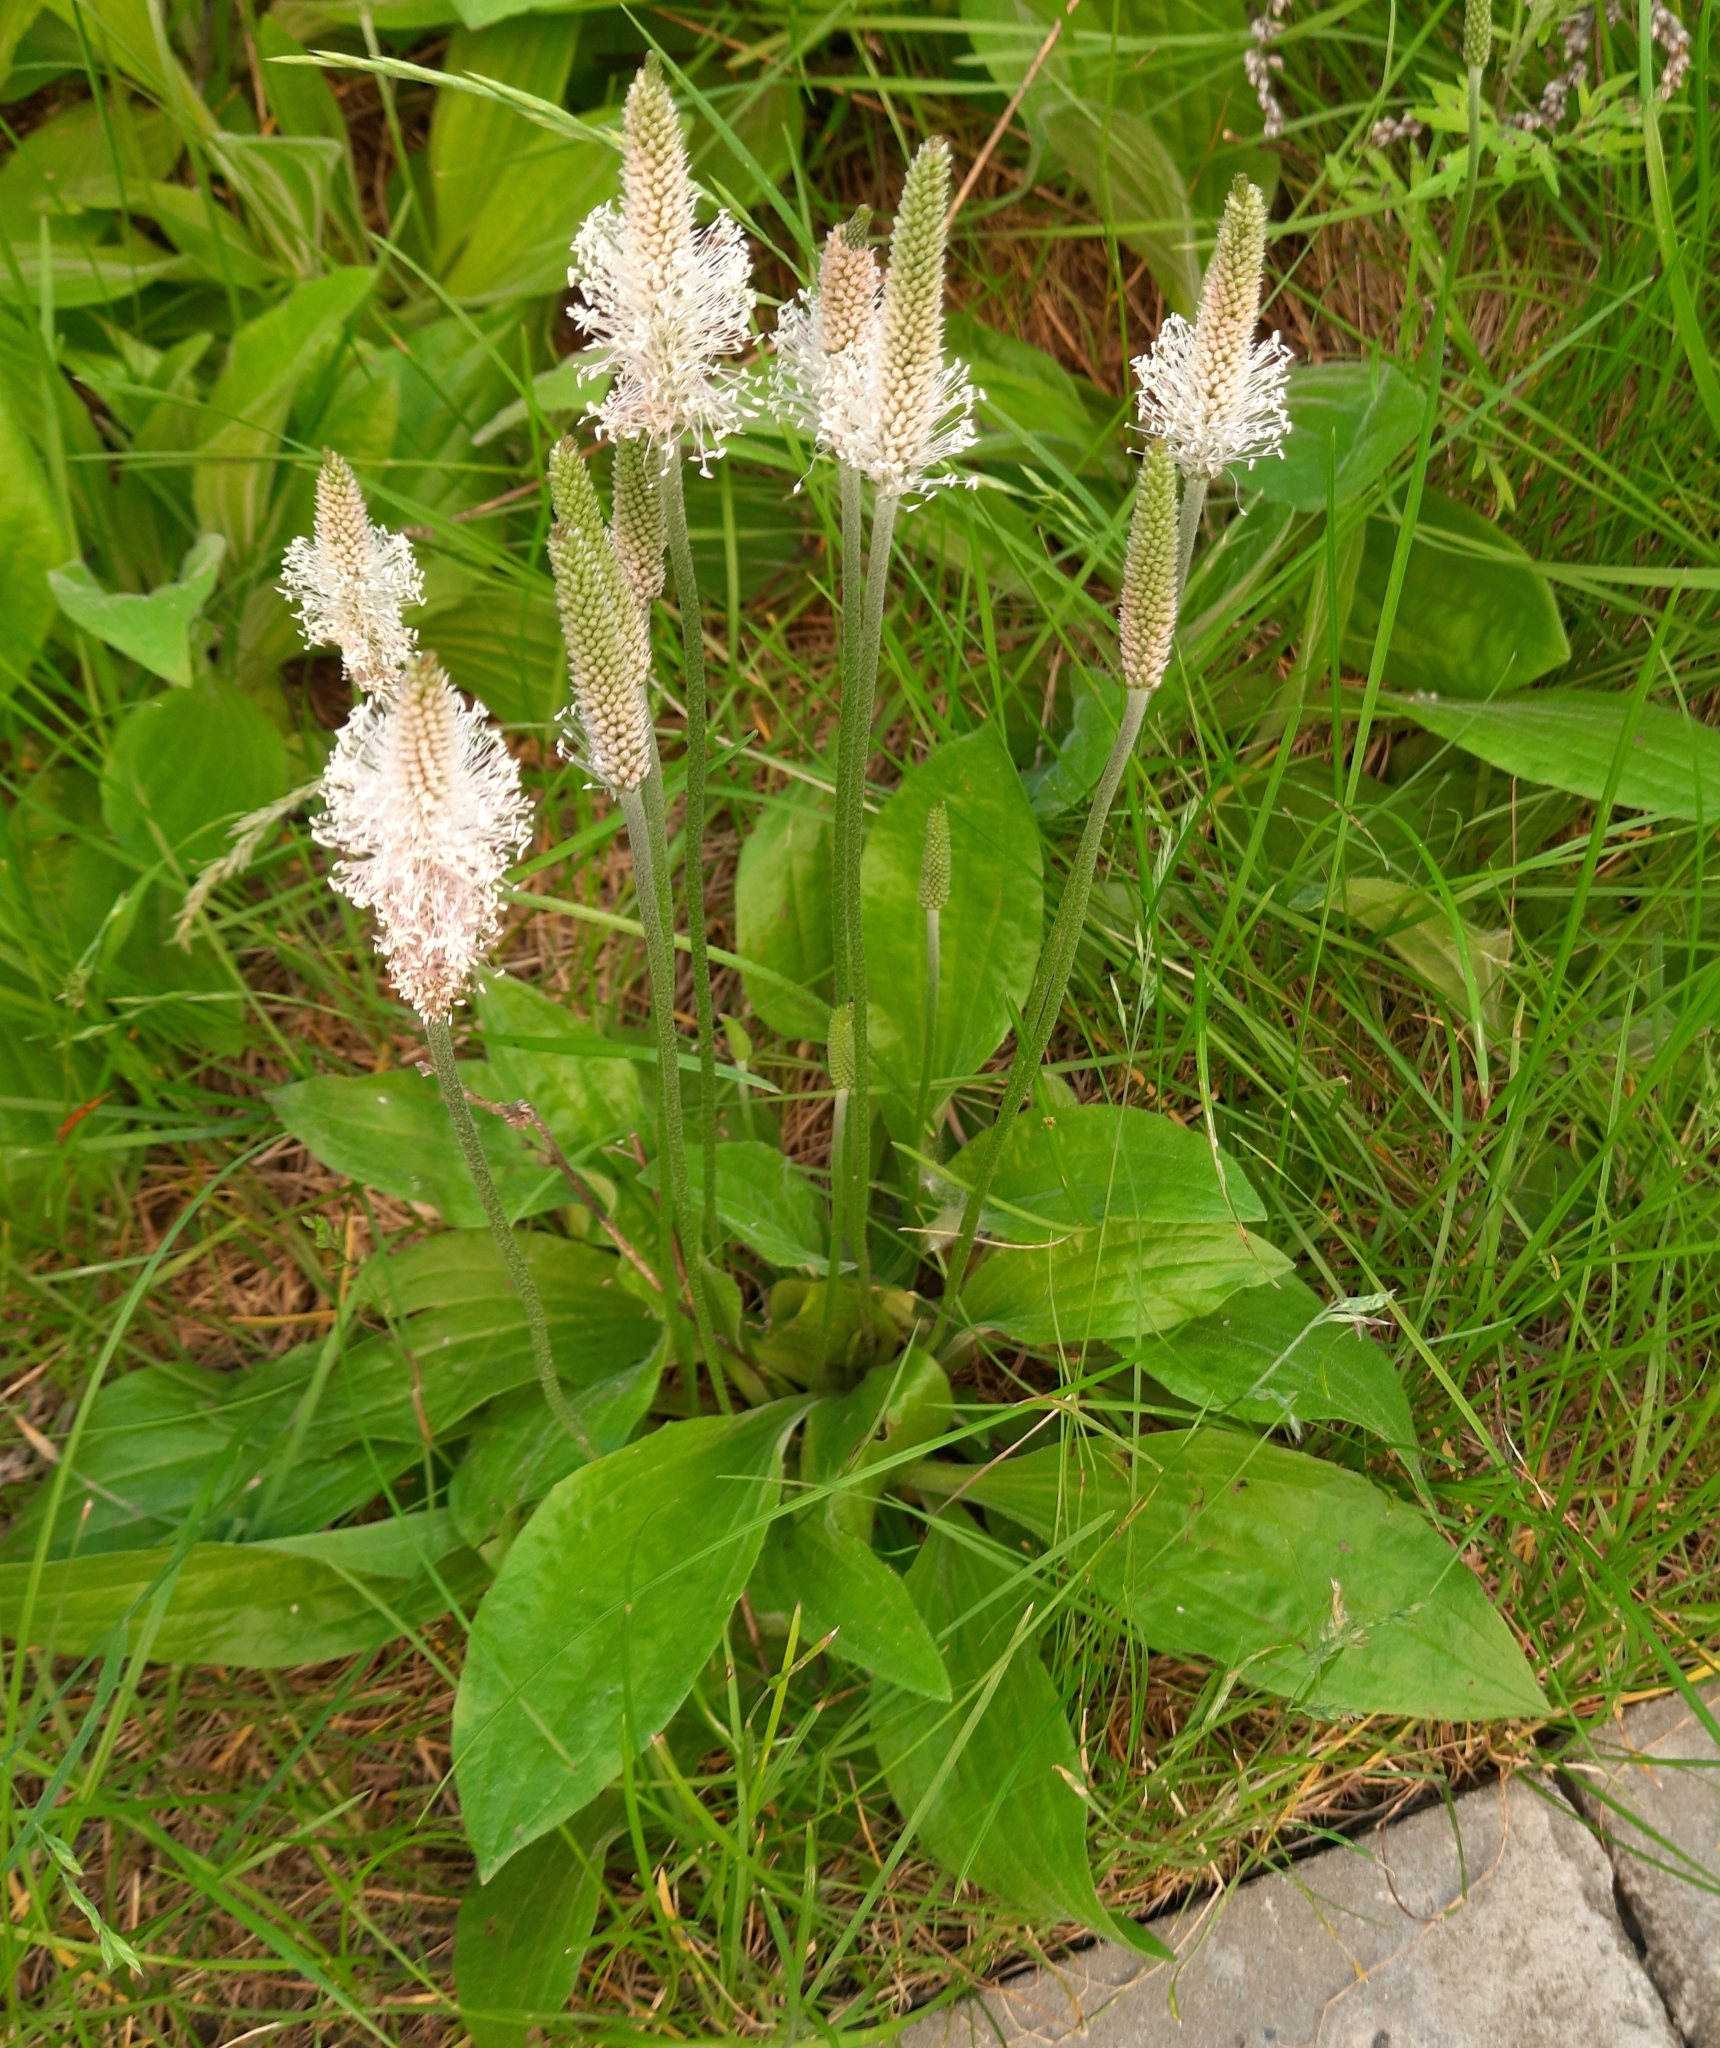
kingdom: Plantae
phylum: Tracheophyta
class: Magnoliopsida
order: Lamiales
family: Plantaginaceae
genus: Plantago
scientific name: Plantago media
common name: Hoary plantain
